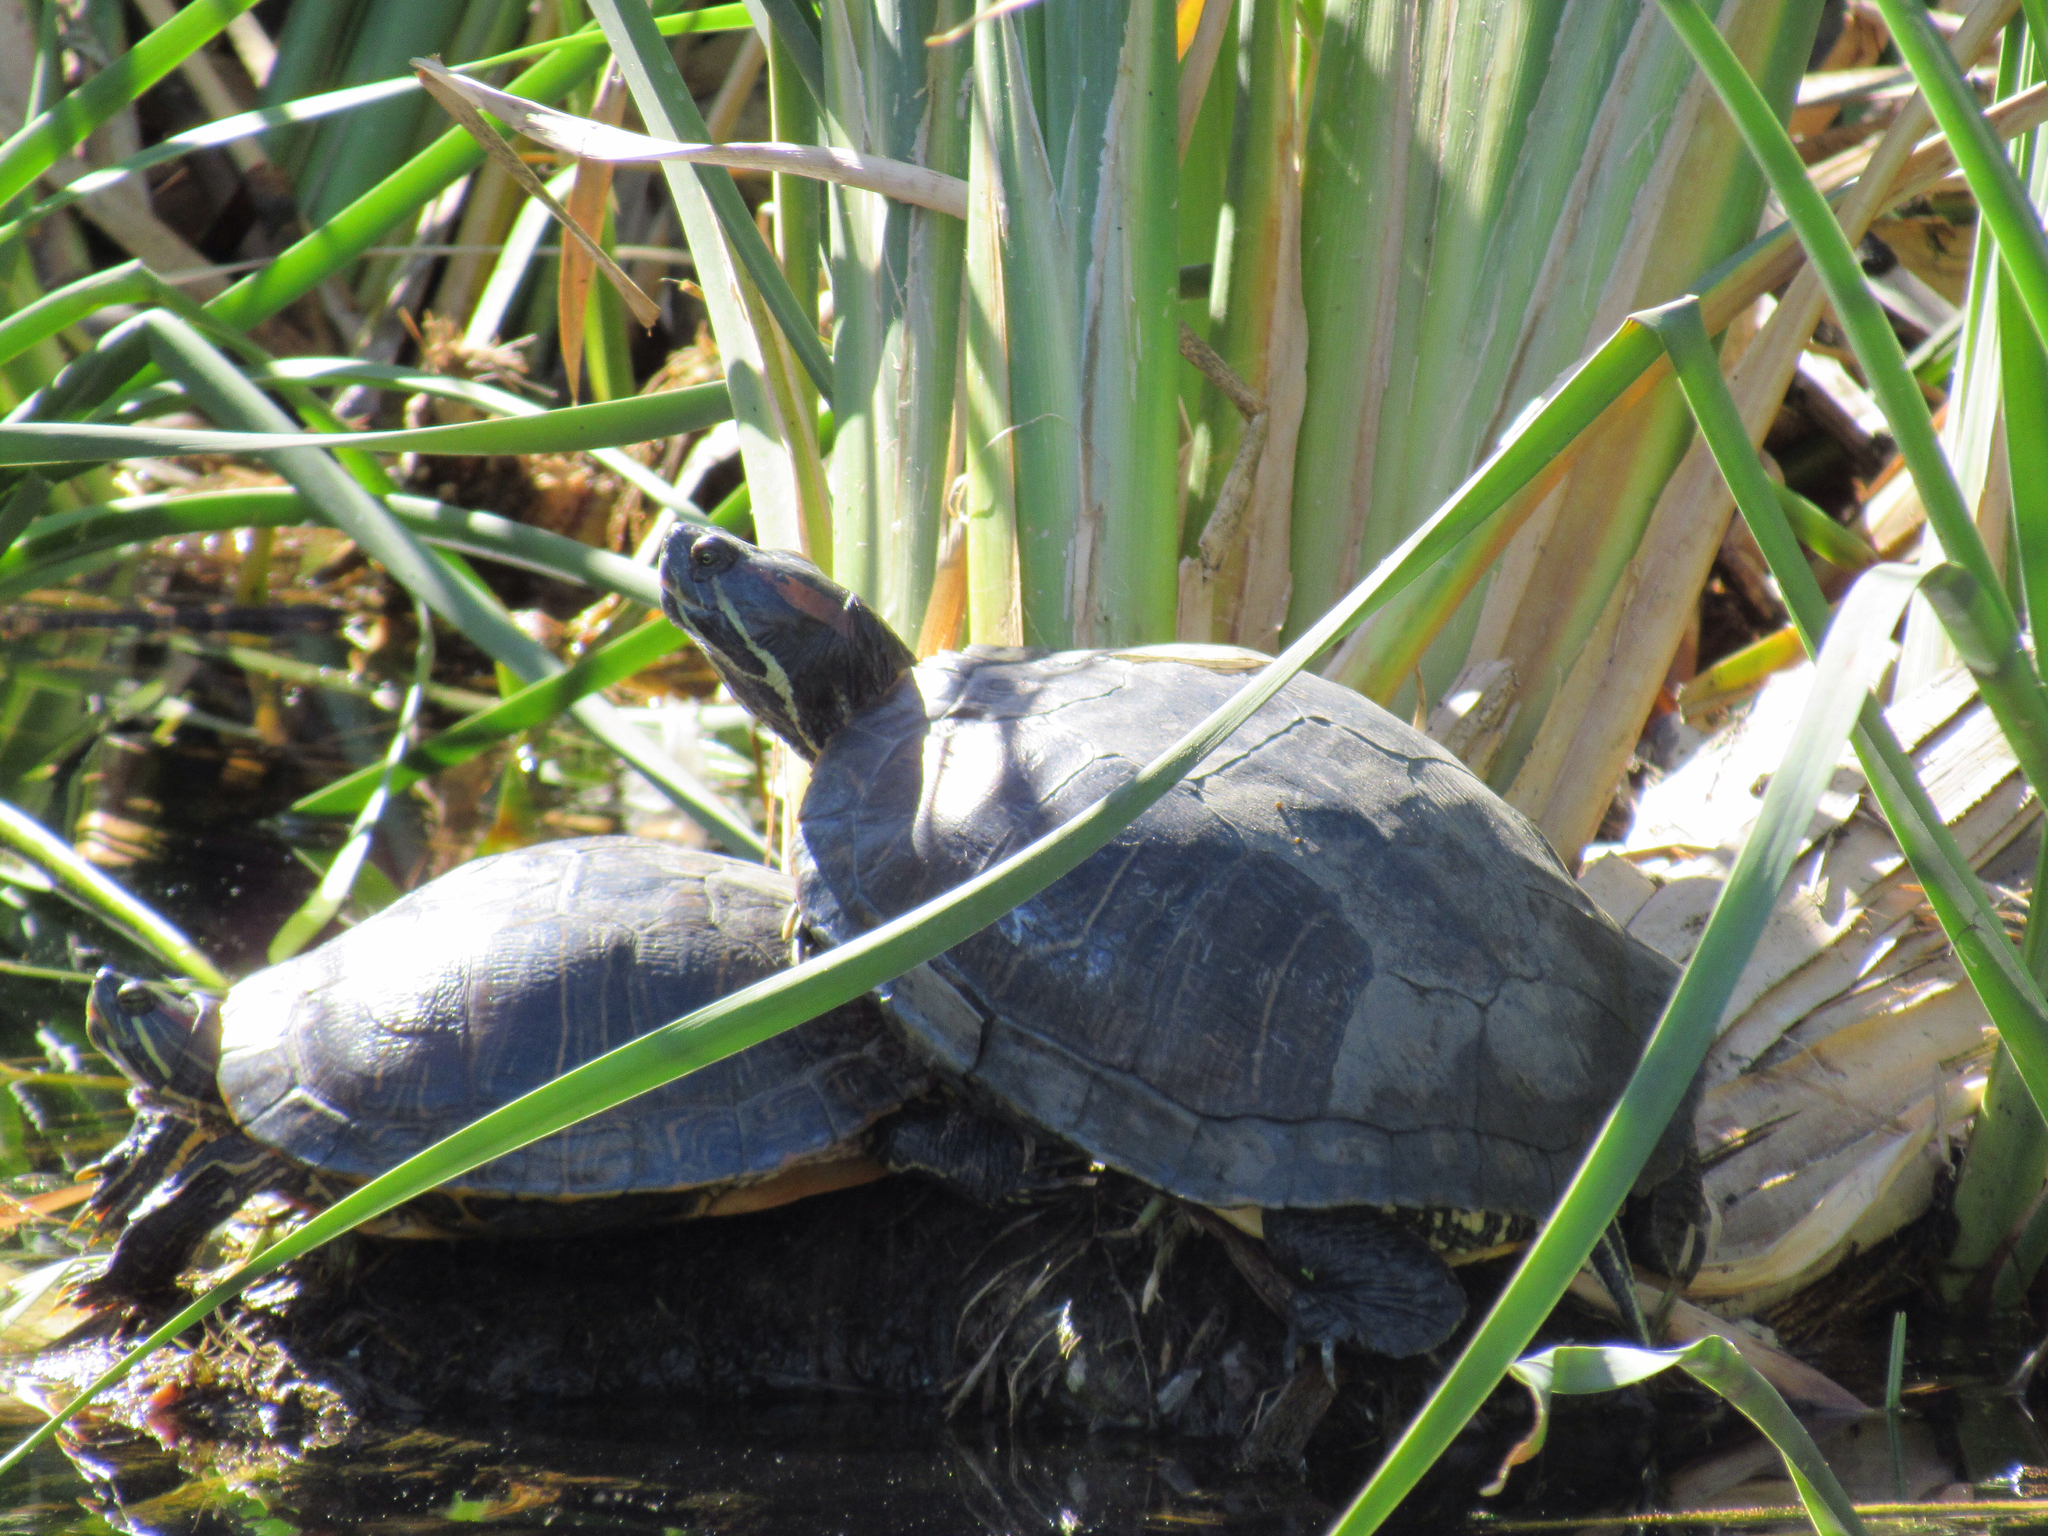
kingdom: Animalia
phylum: Chordata
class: Testudines
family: Emydidae
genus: Trachemys
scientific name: Trachemys scripta
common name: Slider
